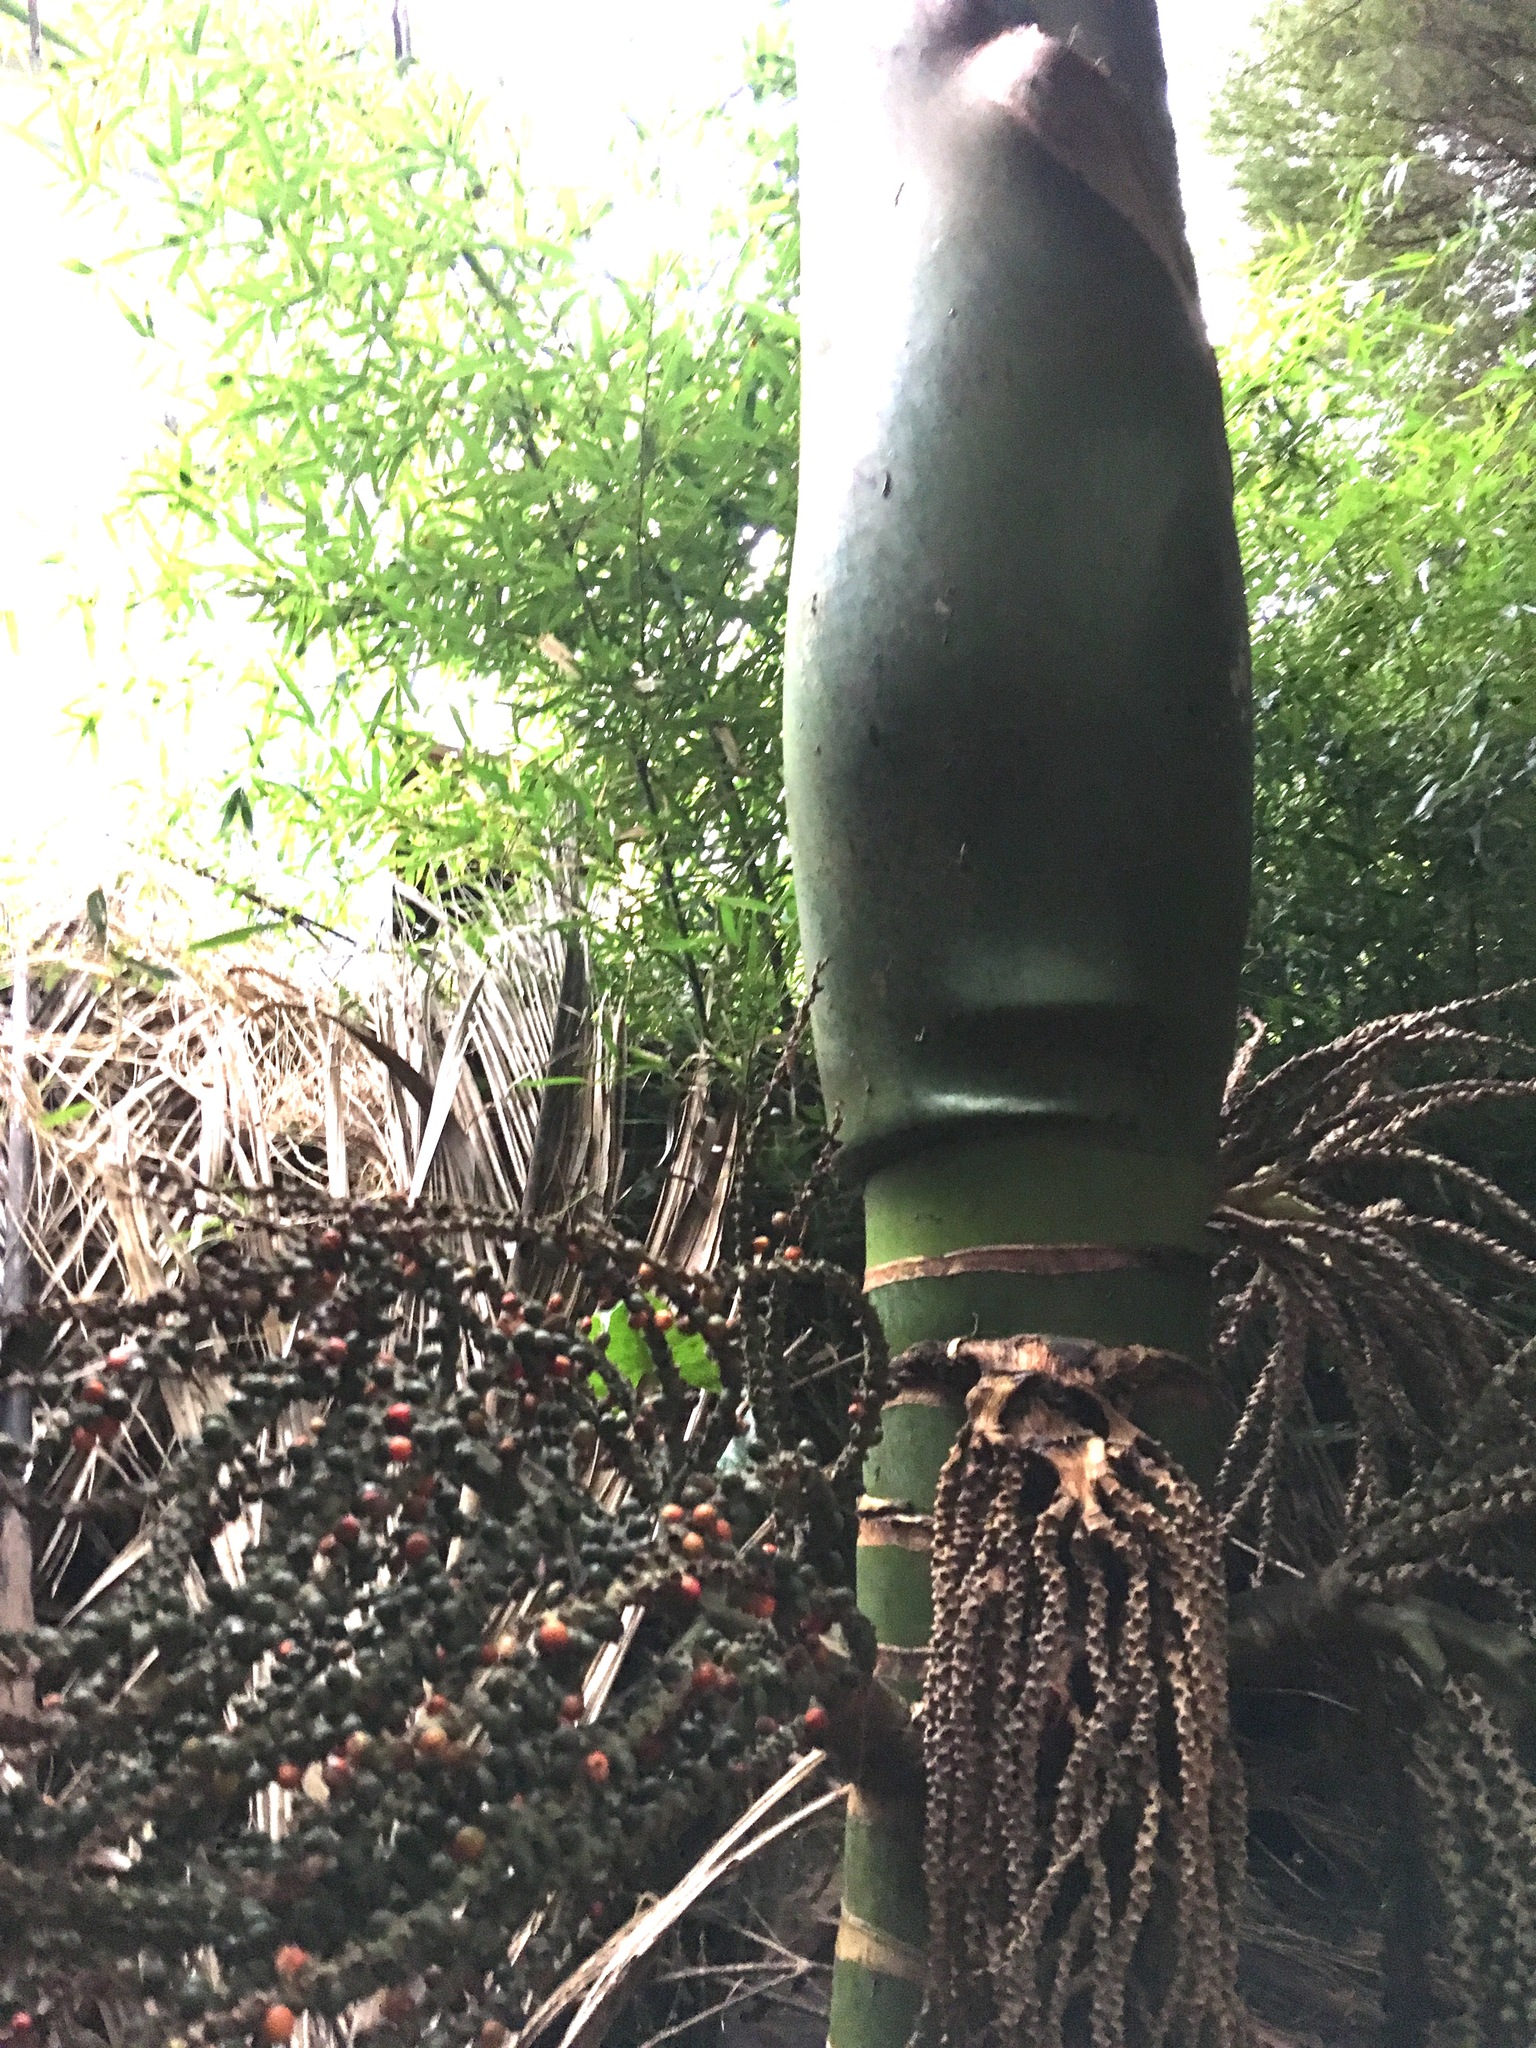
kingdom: Plantae
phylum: Tracheophyta
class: Liliopsida
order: Arecales
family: Arecaceae
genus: Rhopalostylis
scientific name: Rhopalostylis sapida
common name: Feather-duster palm
